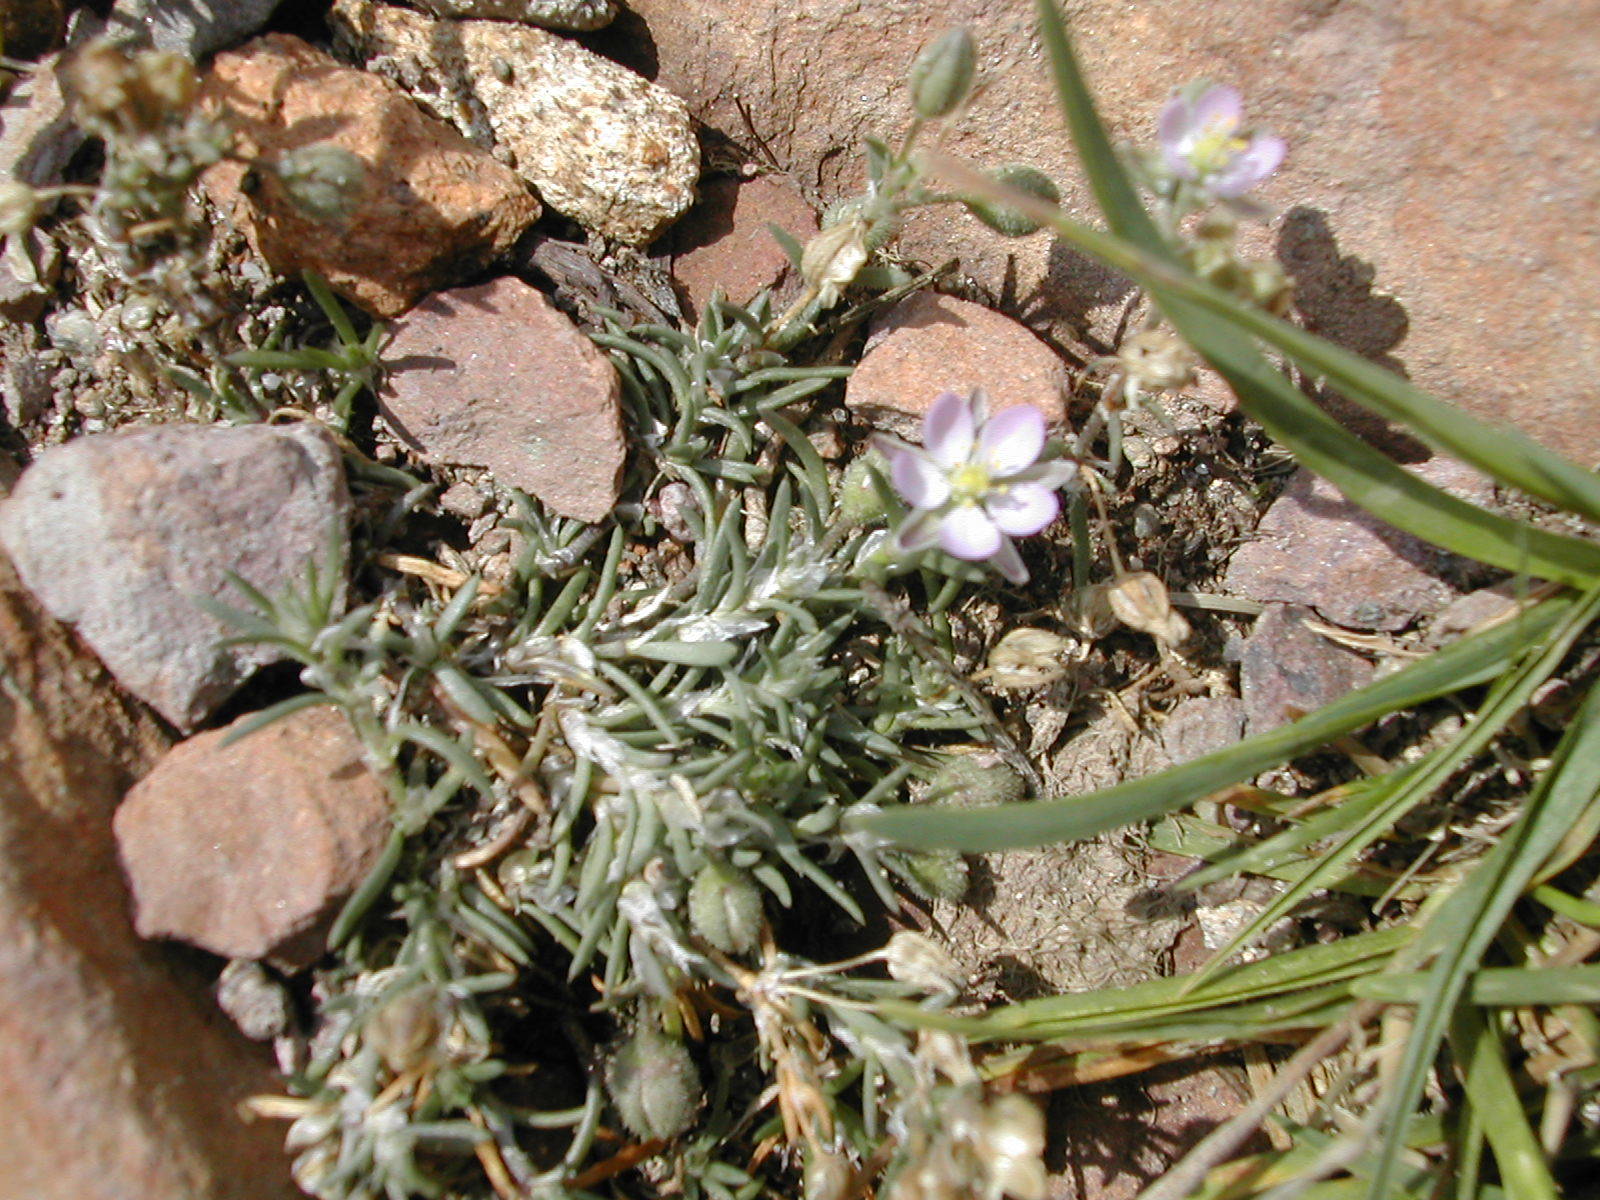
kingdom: Plantae
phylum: Tracheophyta
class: Magnoliopsida
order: Caryophyllales
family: Caryophyllaceae
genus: Spergularia
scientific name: Spergularia rubra
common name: Red sand-spurrey
